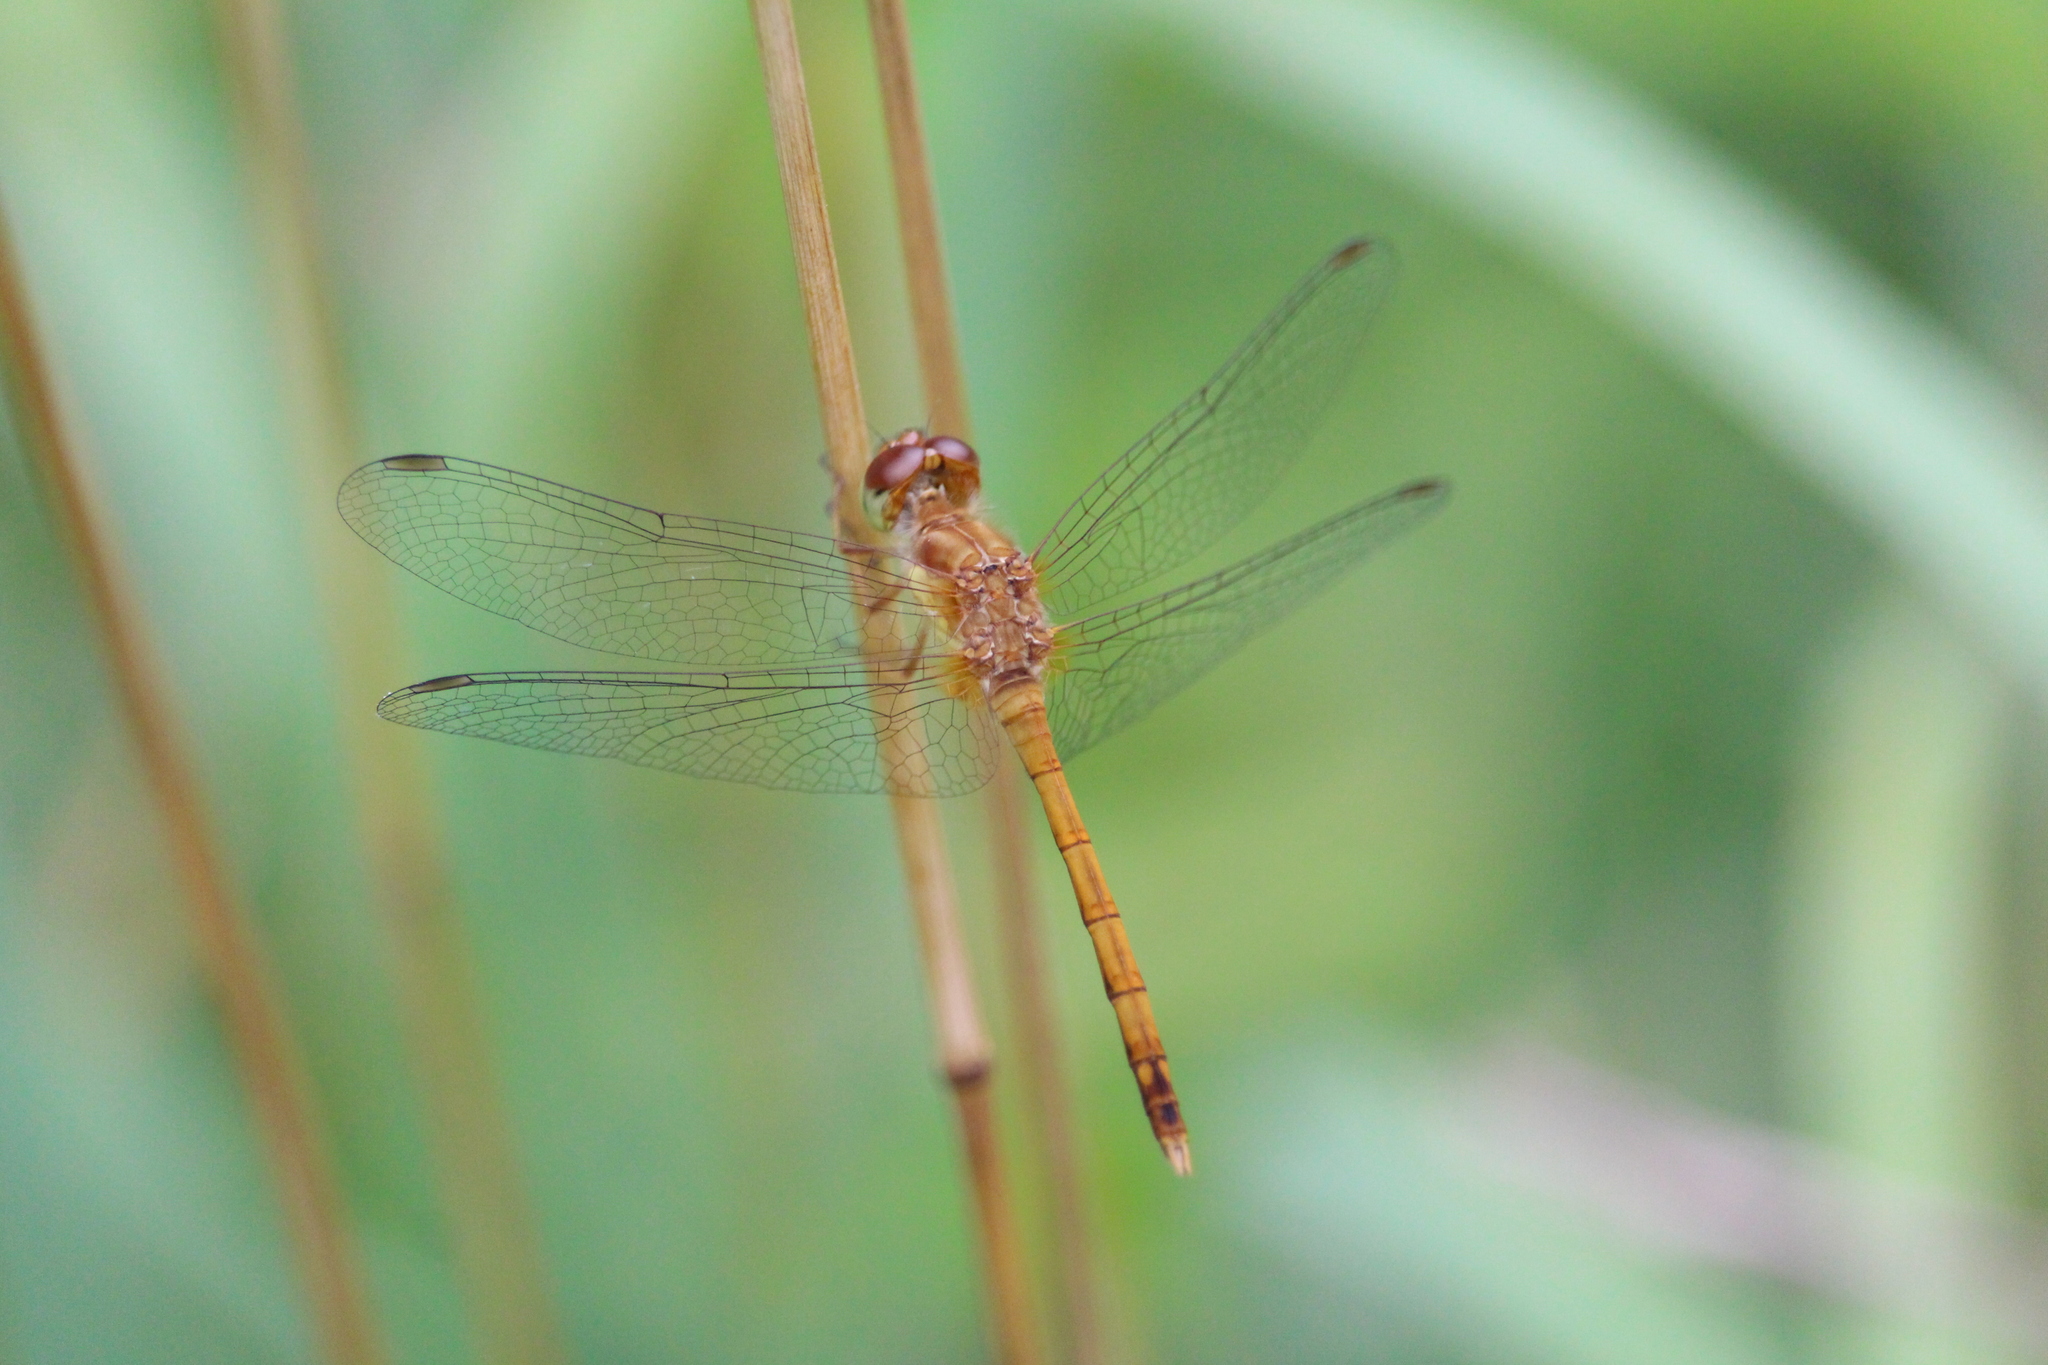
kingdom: Animalia
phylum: Arthropoda
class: Insecta
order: Odonata
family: Libellulidae
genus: Sympetrum
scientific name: Sympetrum vicinum
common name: Autumn meadowhawk
